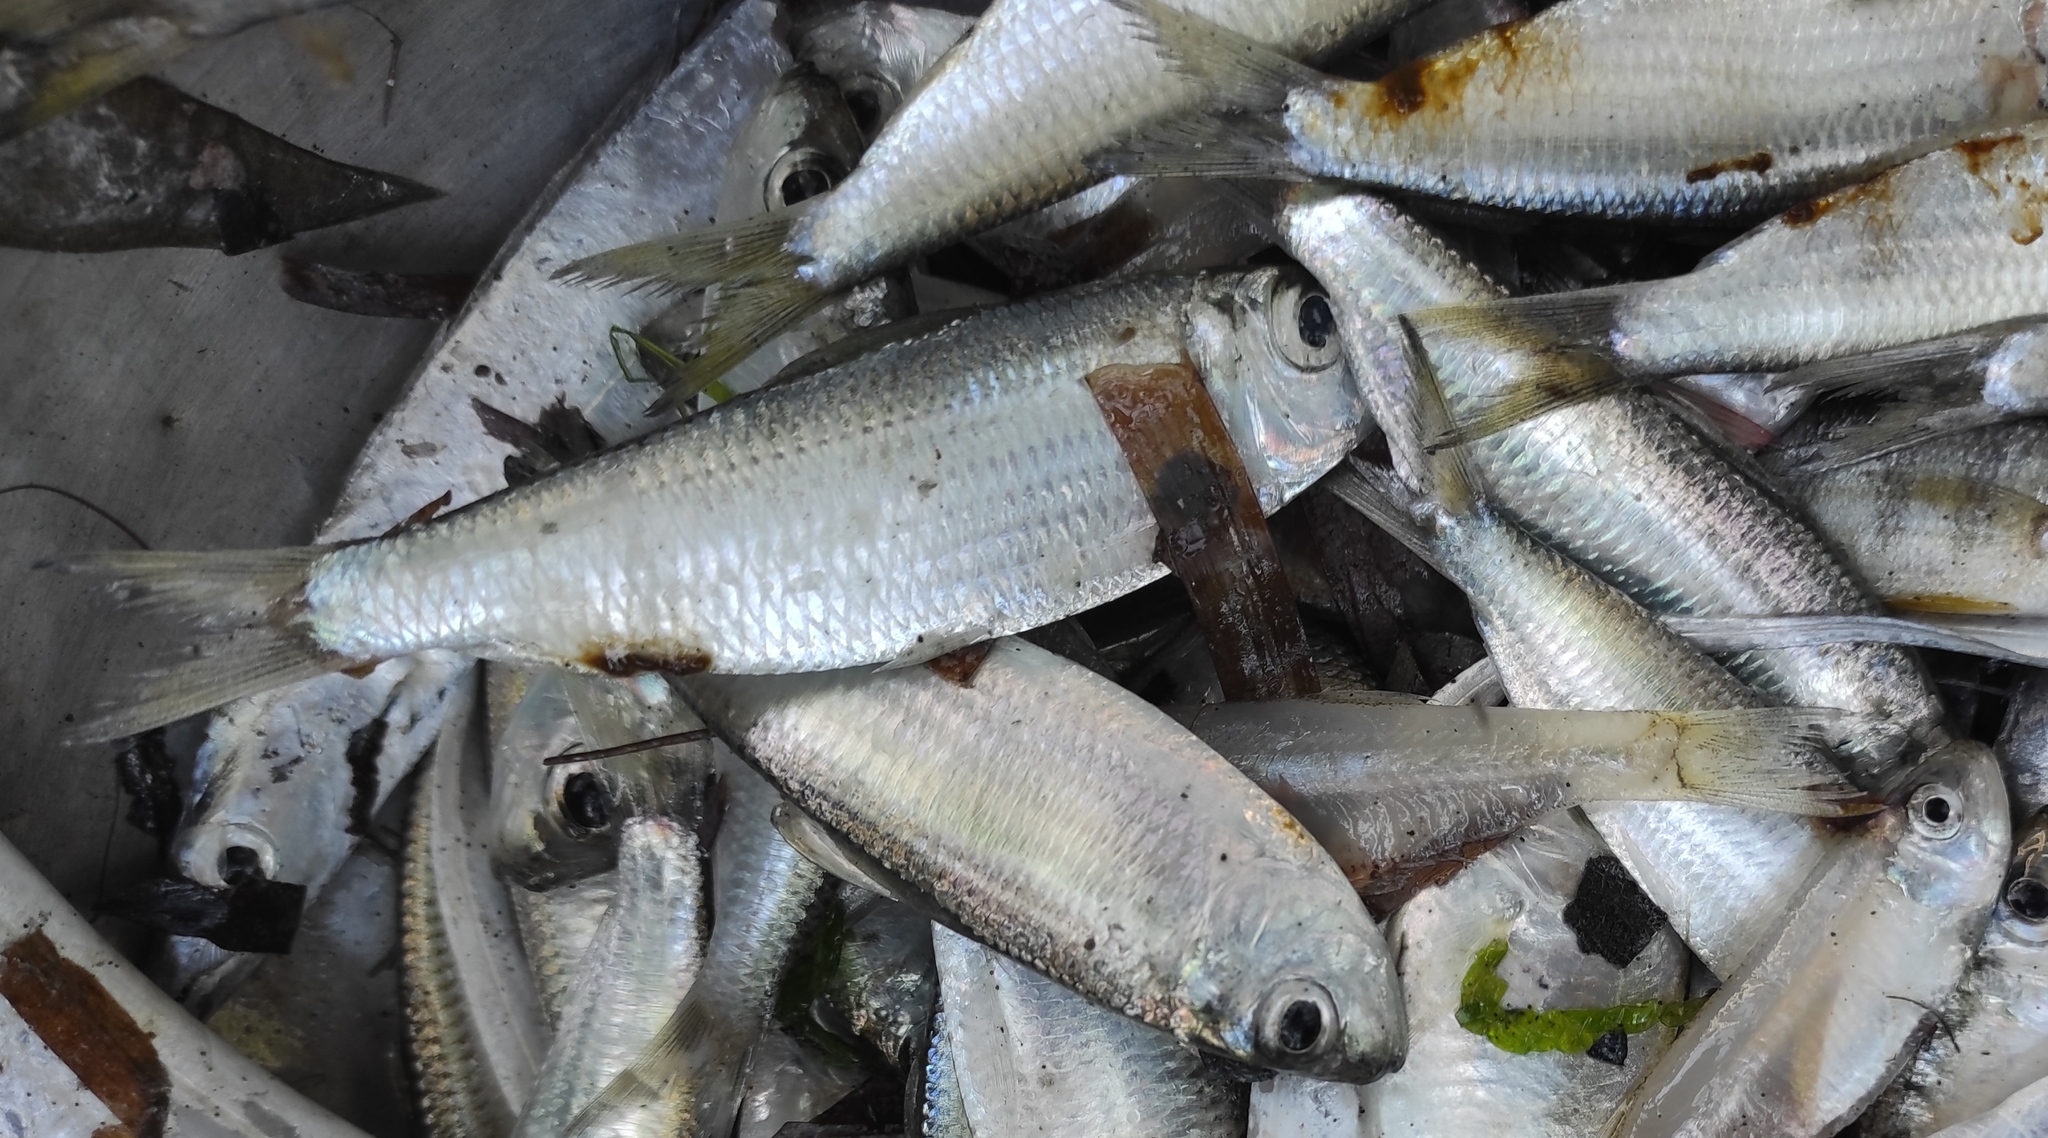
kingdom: Animalia
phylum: Chordata
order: Clupeiformes
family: Clupeidae
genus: Harengula
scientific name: Harengula jaguana
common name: Scaled sardine
